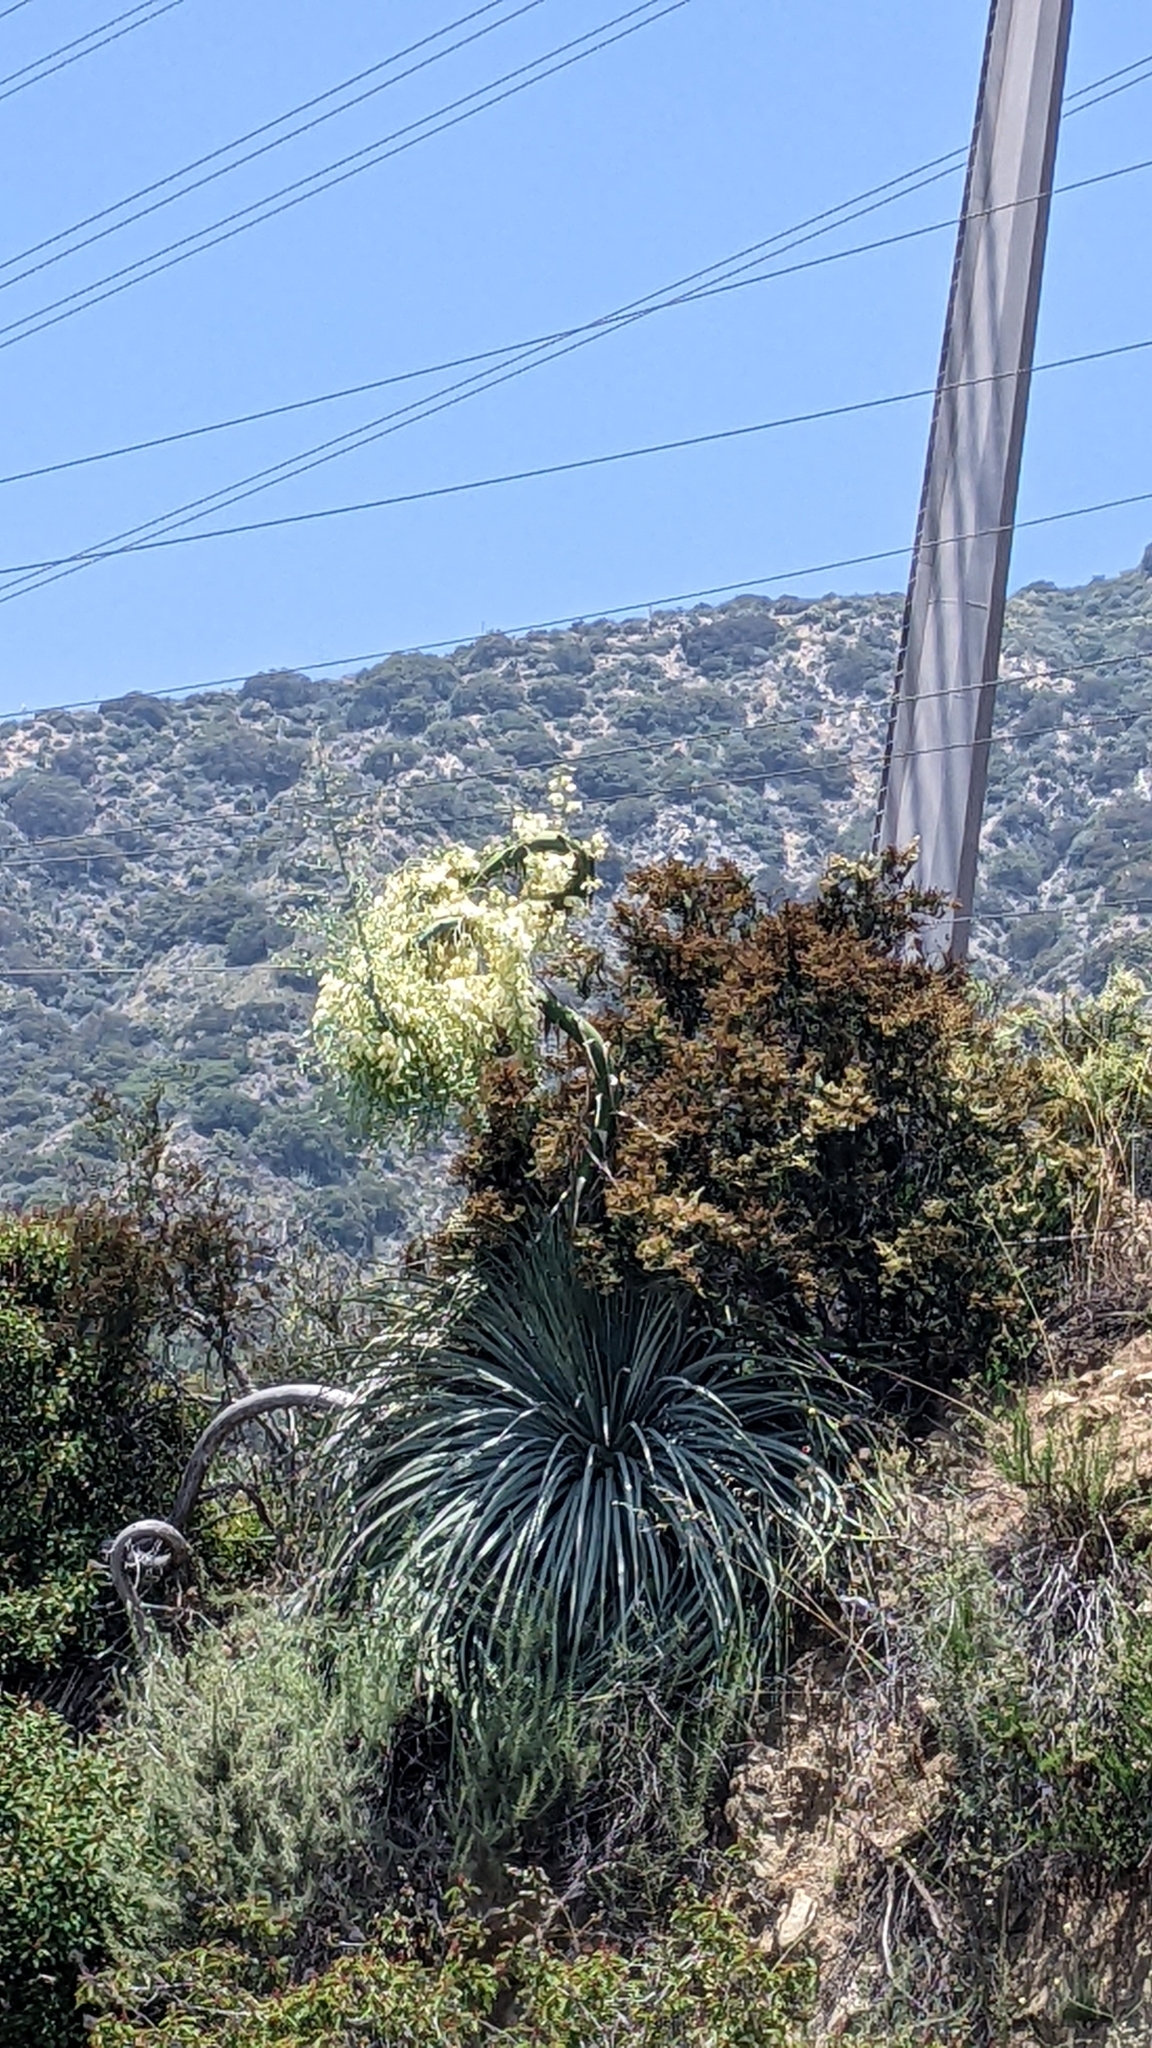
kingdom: Plantae
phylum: Tracheophyta
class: Liliopsida
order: Asparagales
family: Asparagaceae
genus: Hesperoyucca
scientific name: Hesperoyucca whipplei
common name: Our lord's-candle
